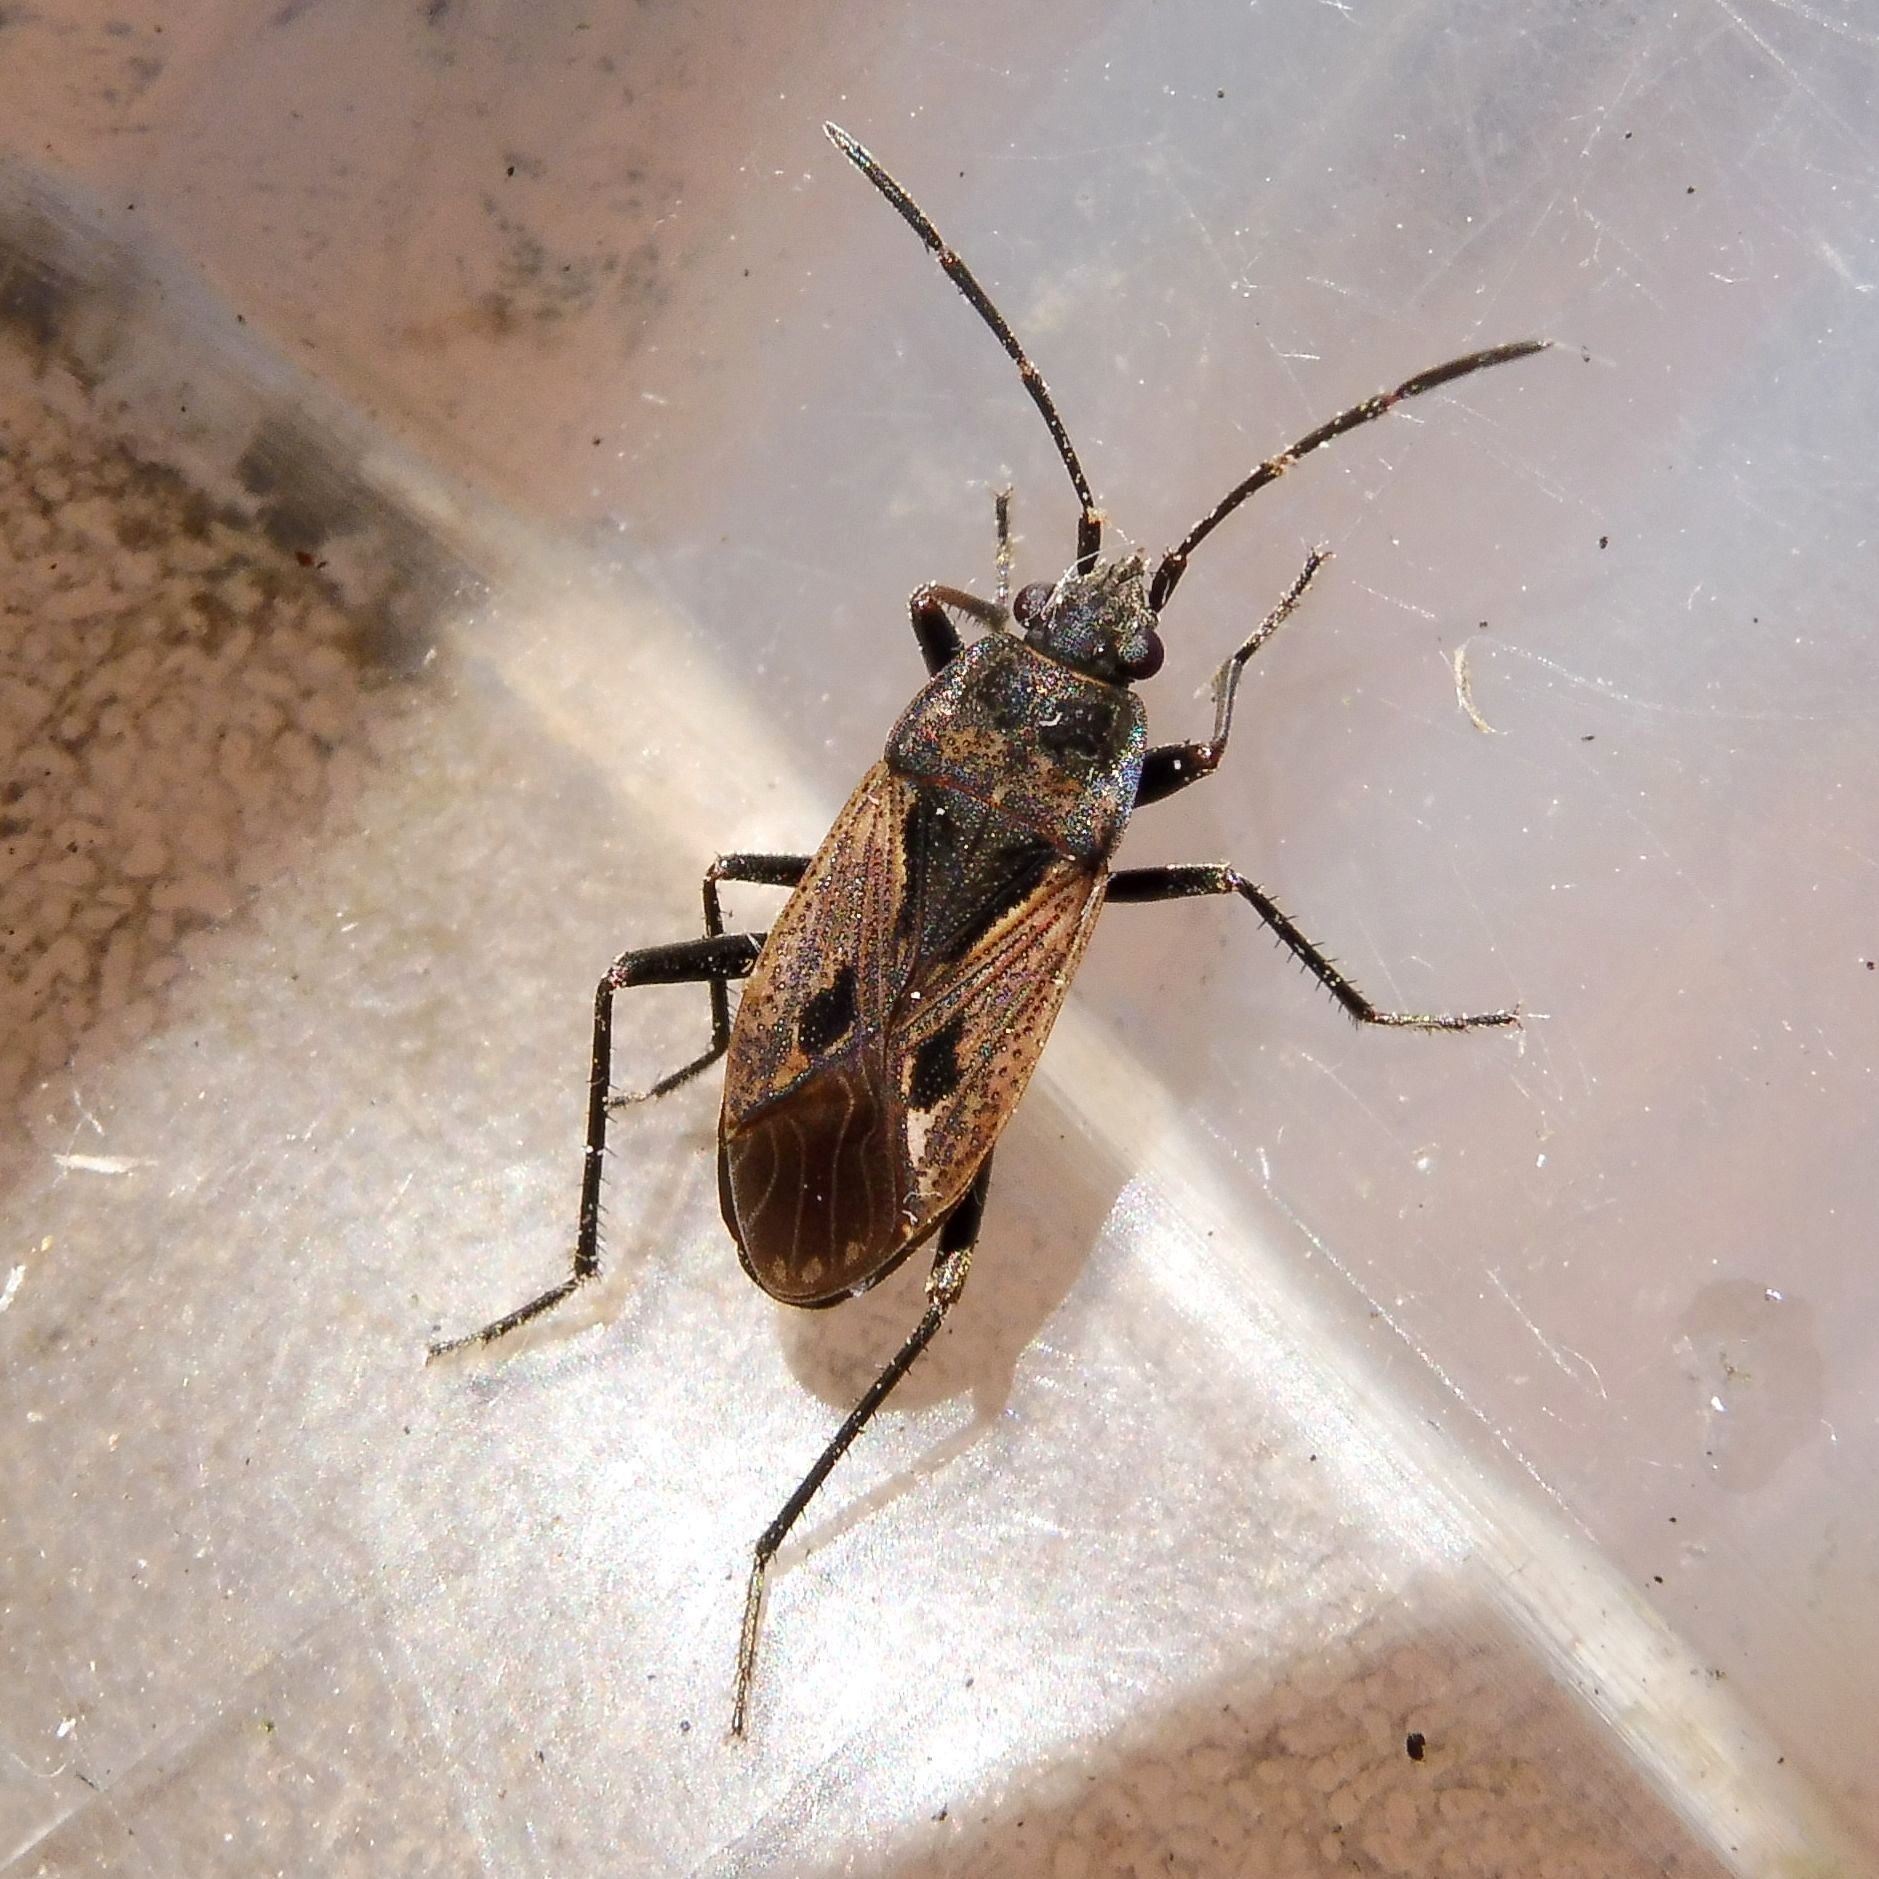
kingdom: Animalia
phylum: Arthropoda
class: Insecta
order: Hemiptera
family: Rhyparochromidae
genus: Rhyparochromus
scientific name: Rhyparochromus pini
